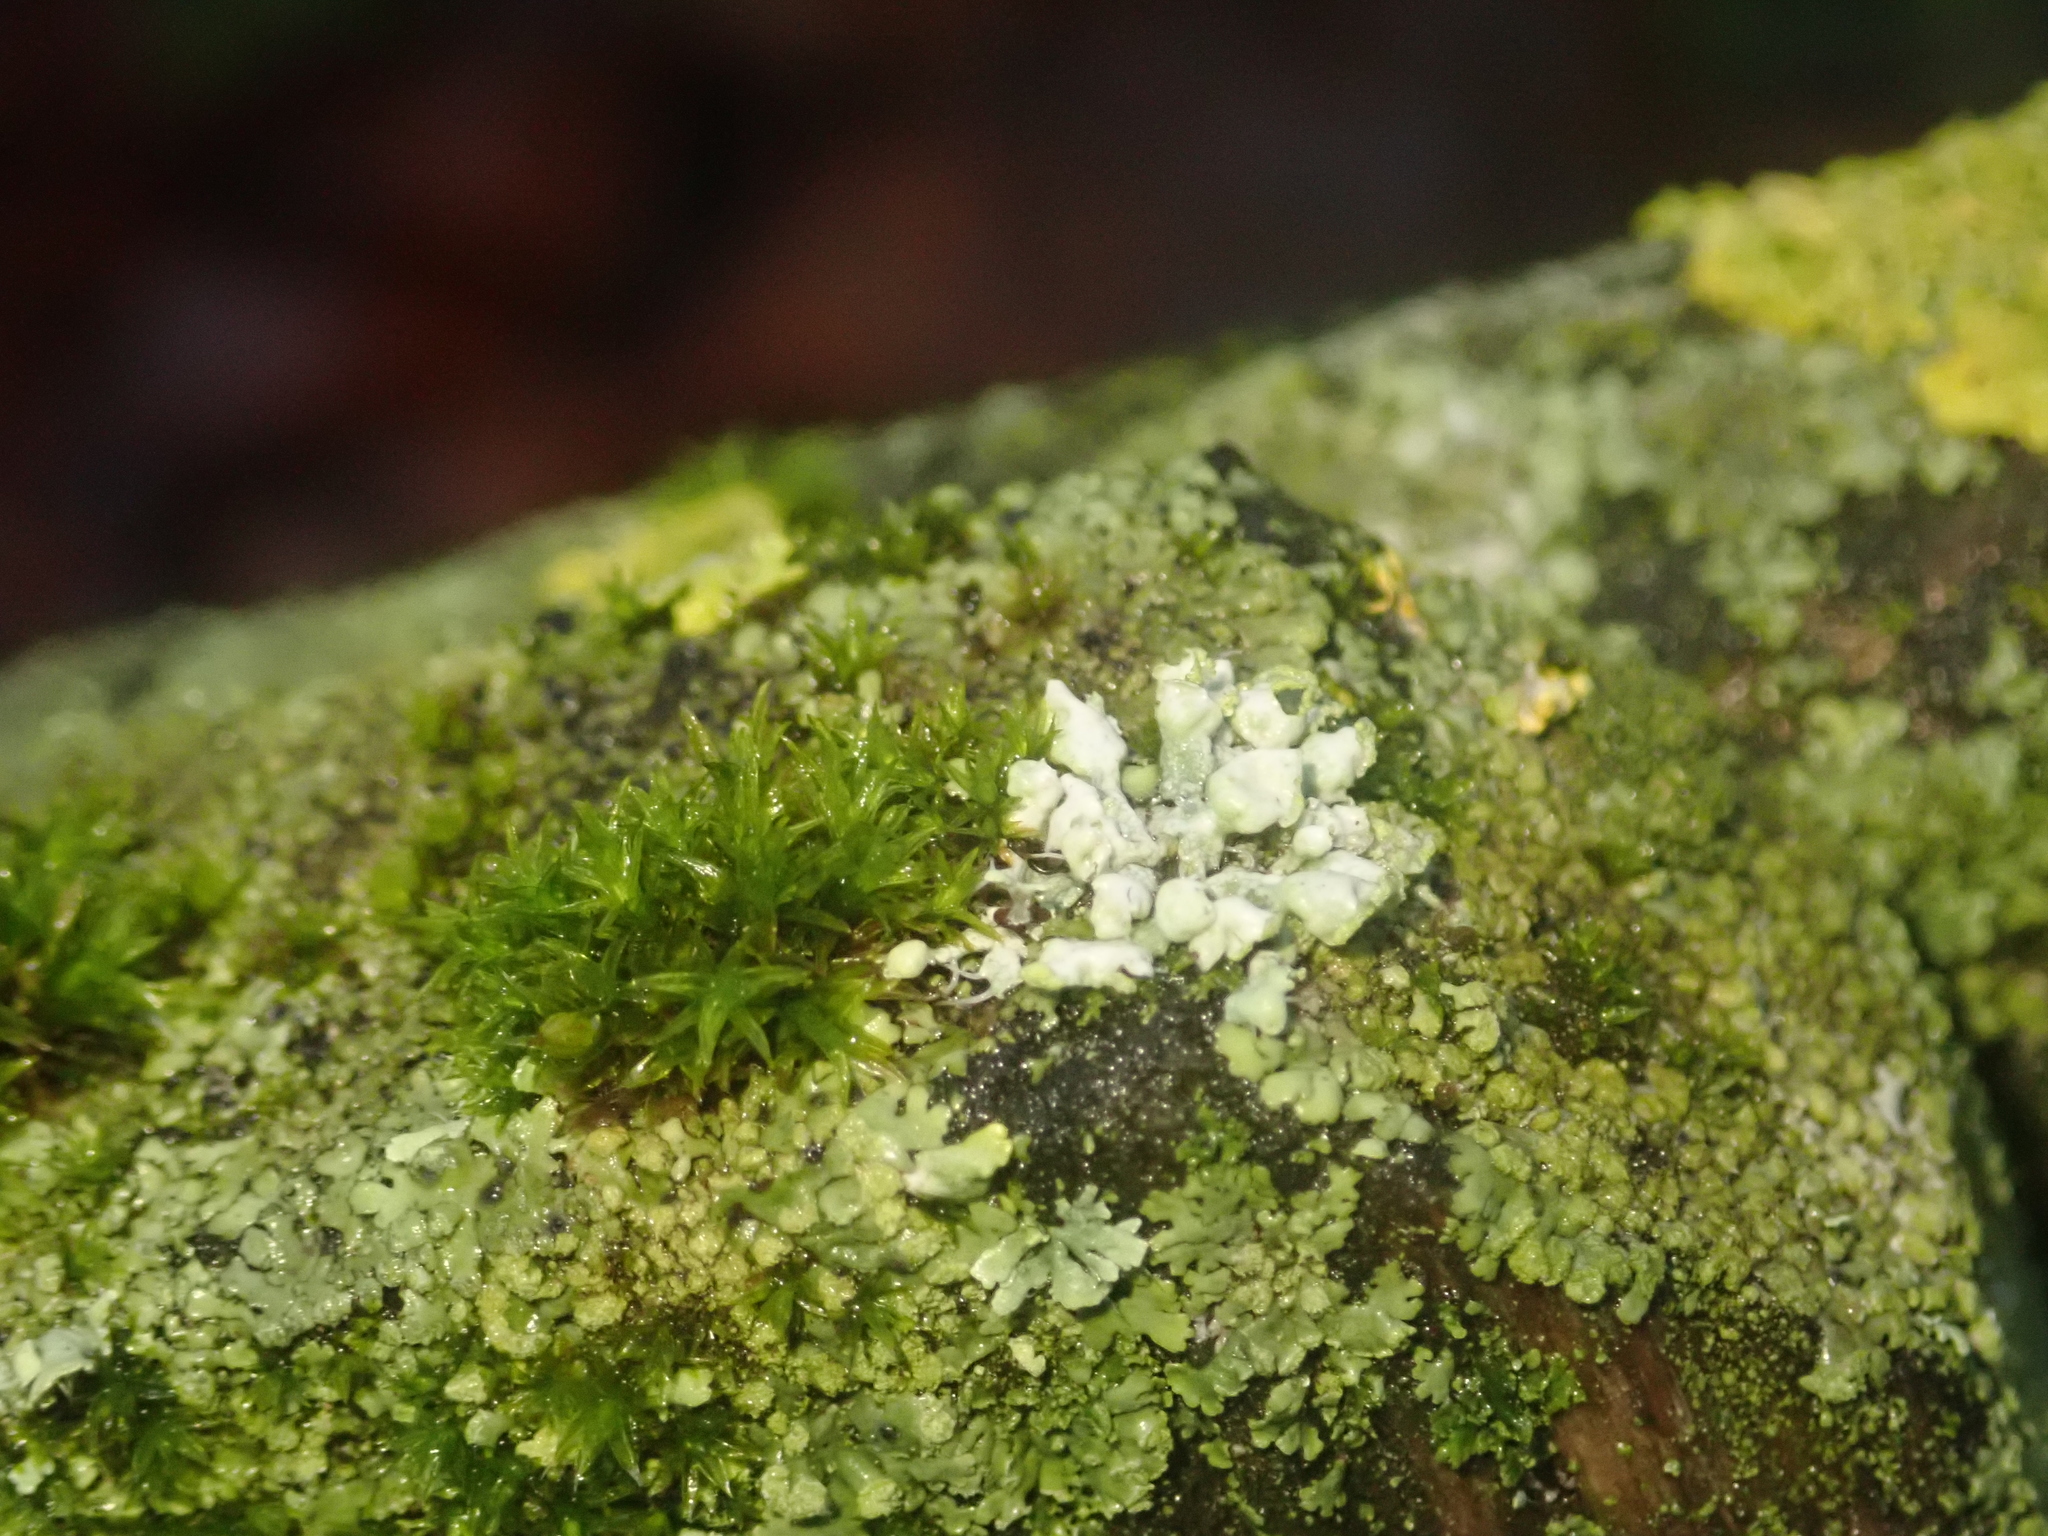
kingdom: Fungi
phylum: Ascomycota
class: Lecanoromycetes
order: Caliciales
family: Physciaceae
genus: Physcia
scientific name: Physcia adscendens
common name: Hooded rosette lichen
